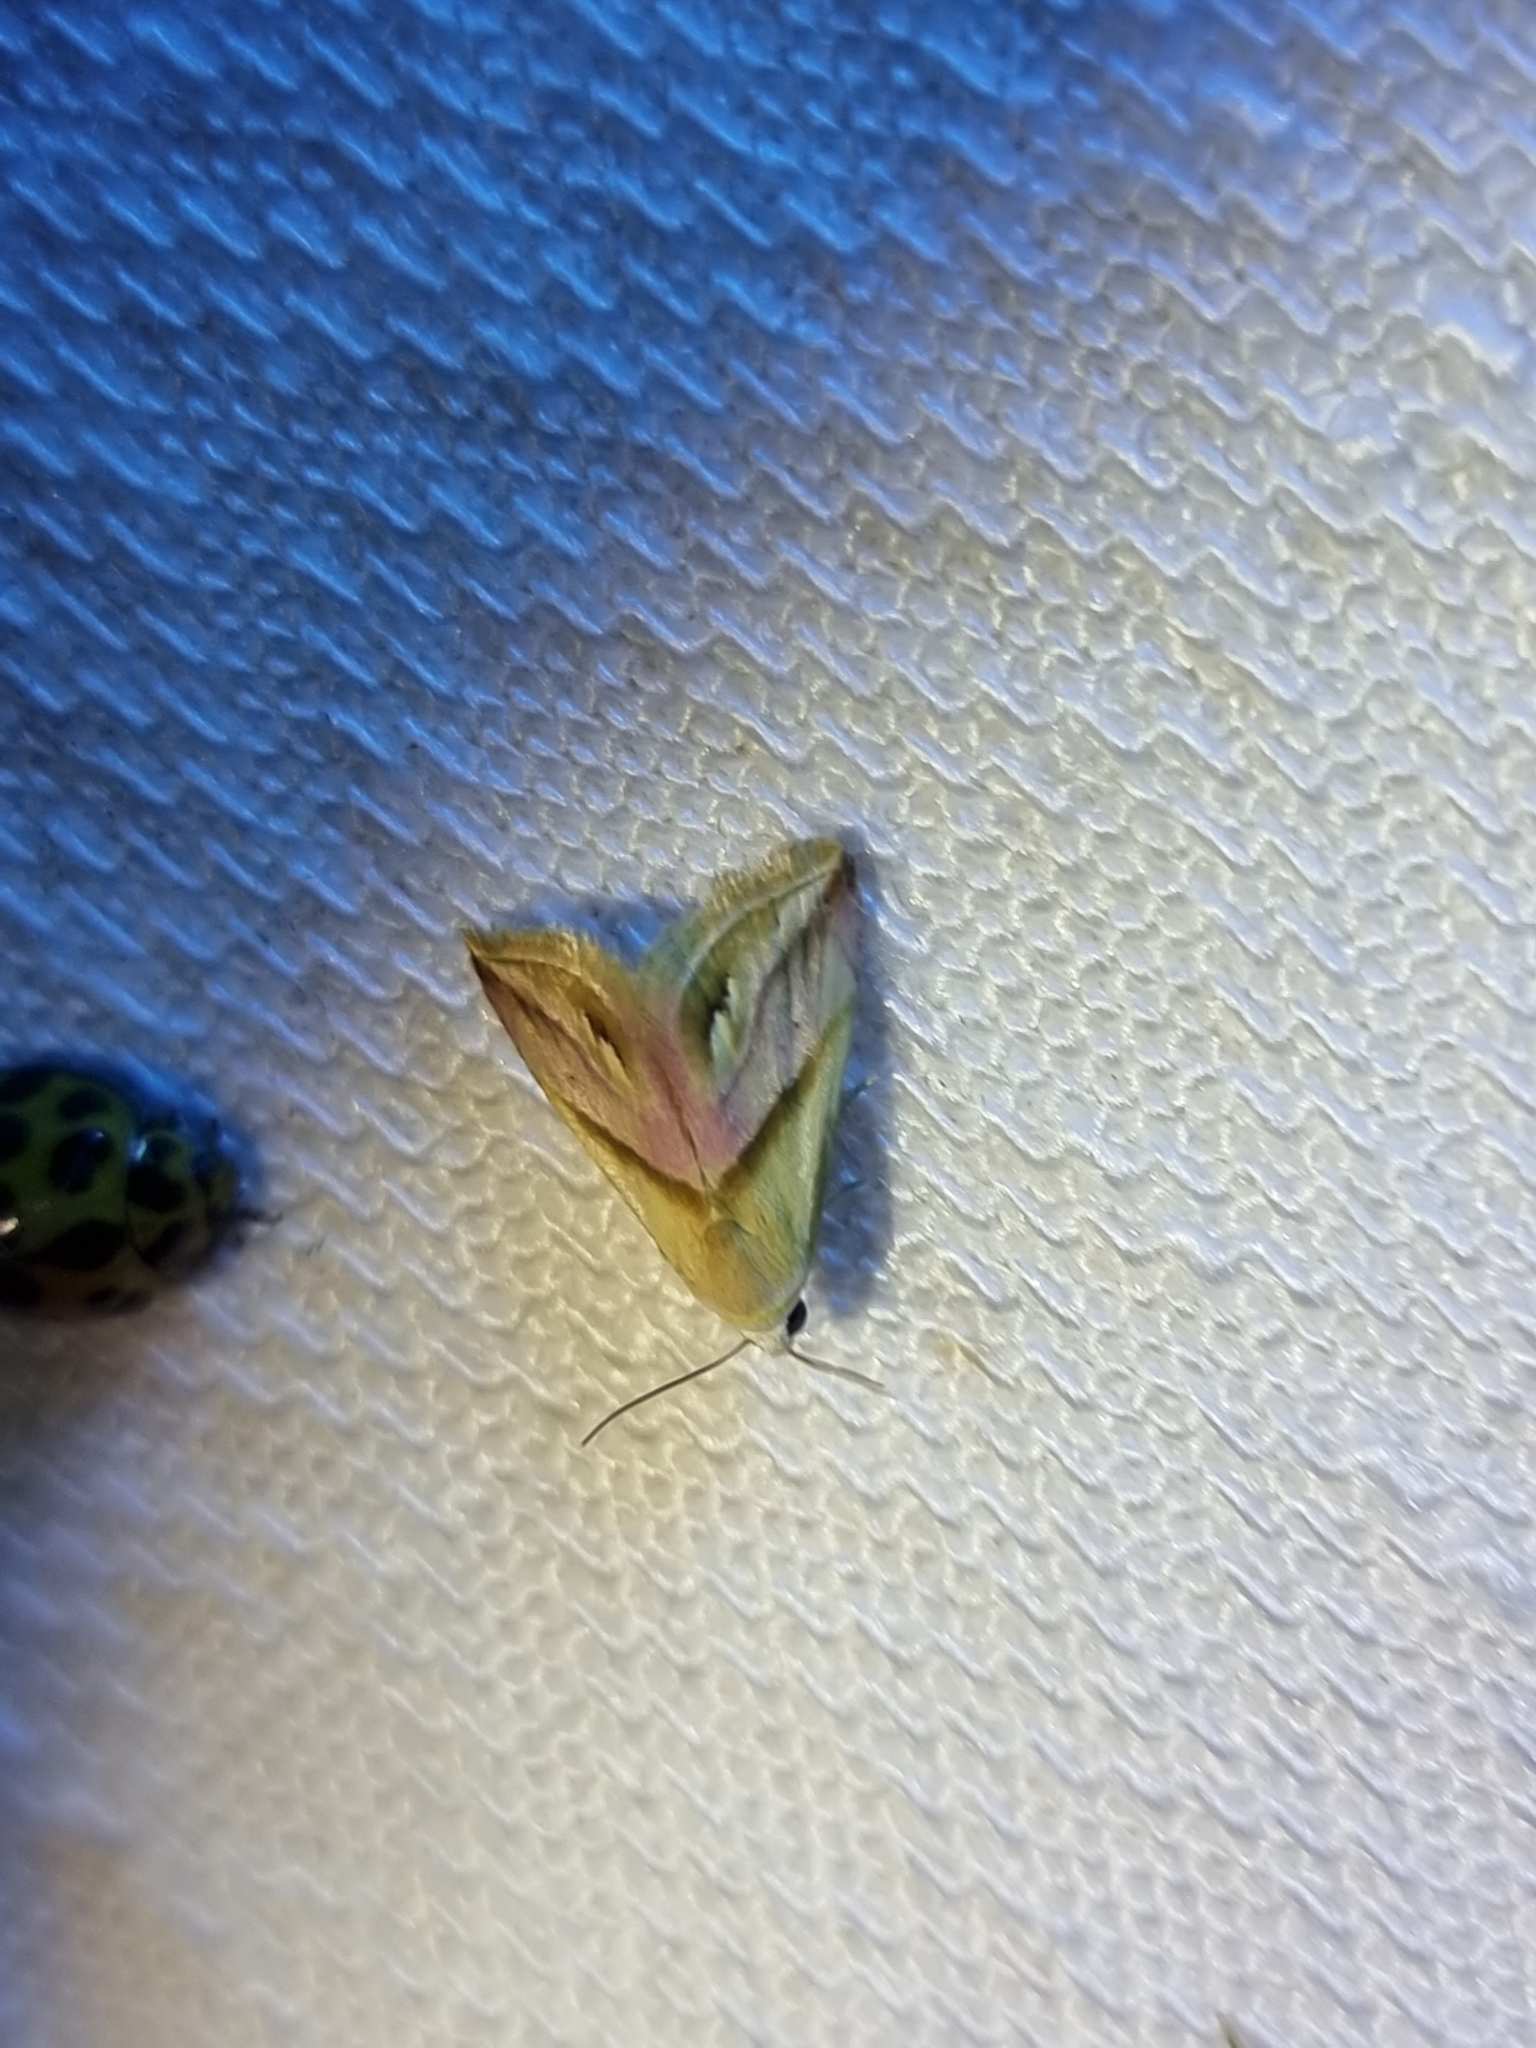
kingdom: Animalia
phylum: Arthropoda
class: Insecta
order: Lepidoptera
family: Noctuidae
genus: Eublemma
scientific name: Eublemma cochylioides
